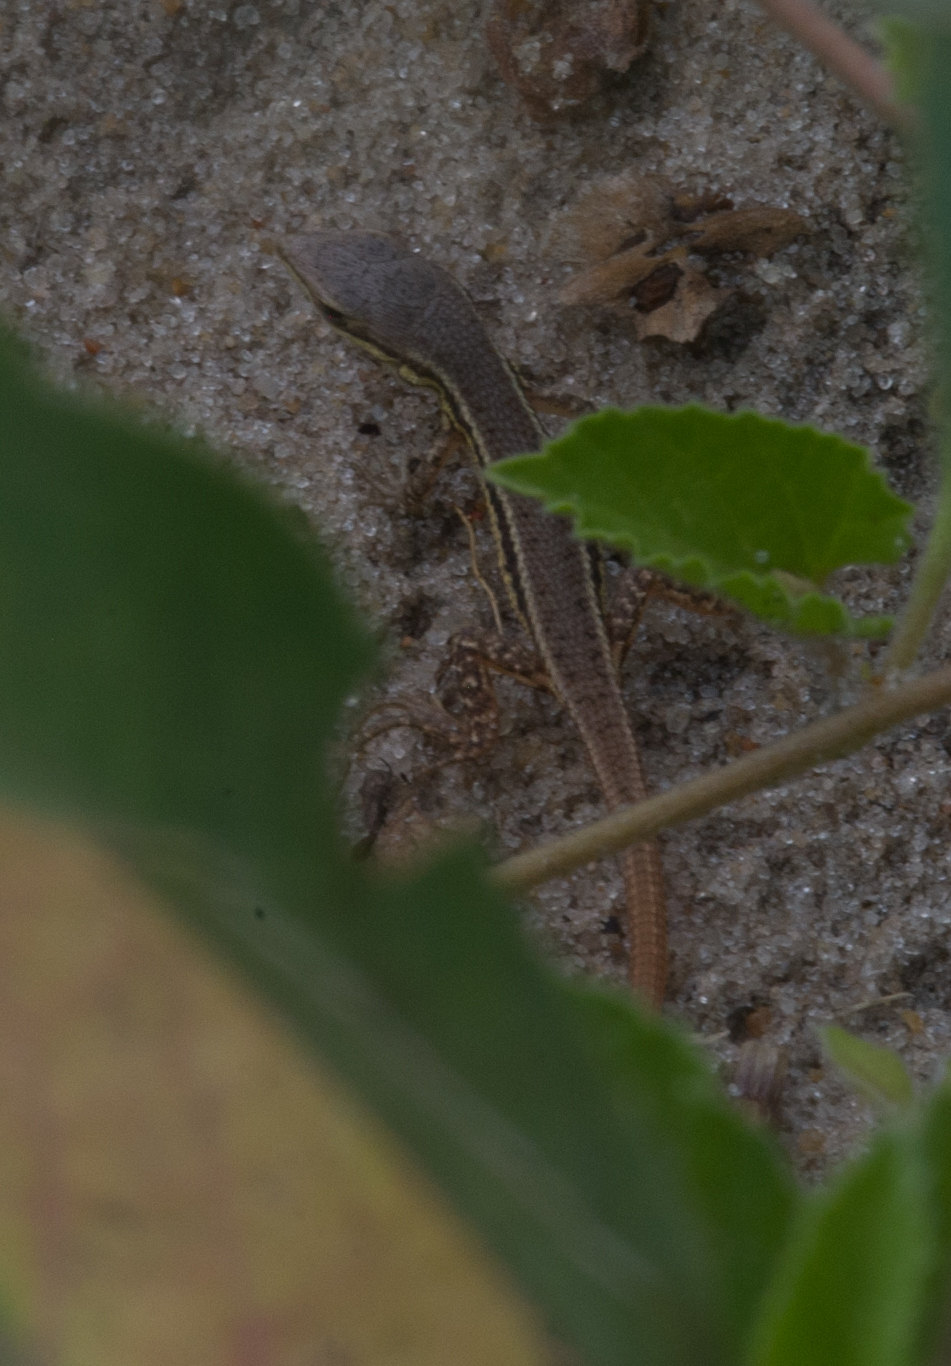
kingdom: Animalia
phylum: Chordata
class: Squamata
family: Lacertidae
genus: Ichnotropis
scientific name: Ichnotropis capensis
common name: Cape rough-scaled lizard
